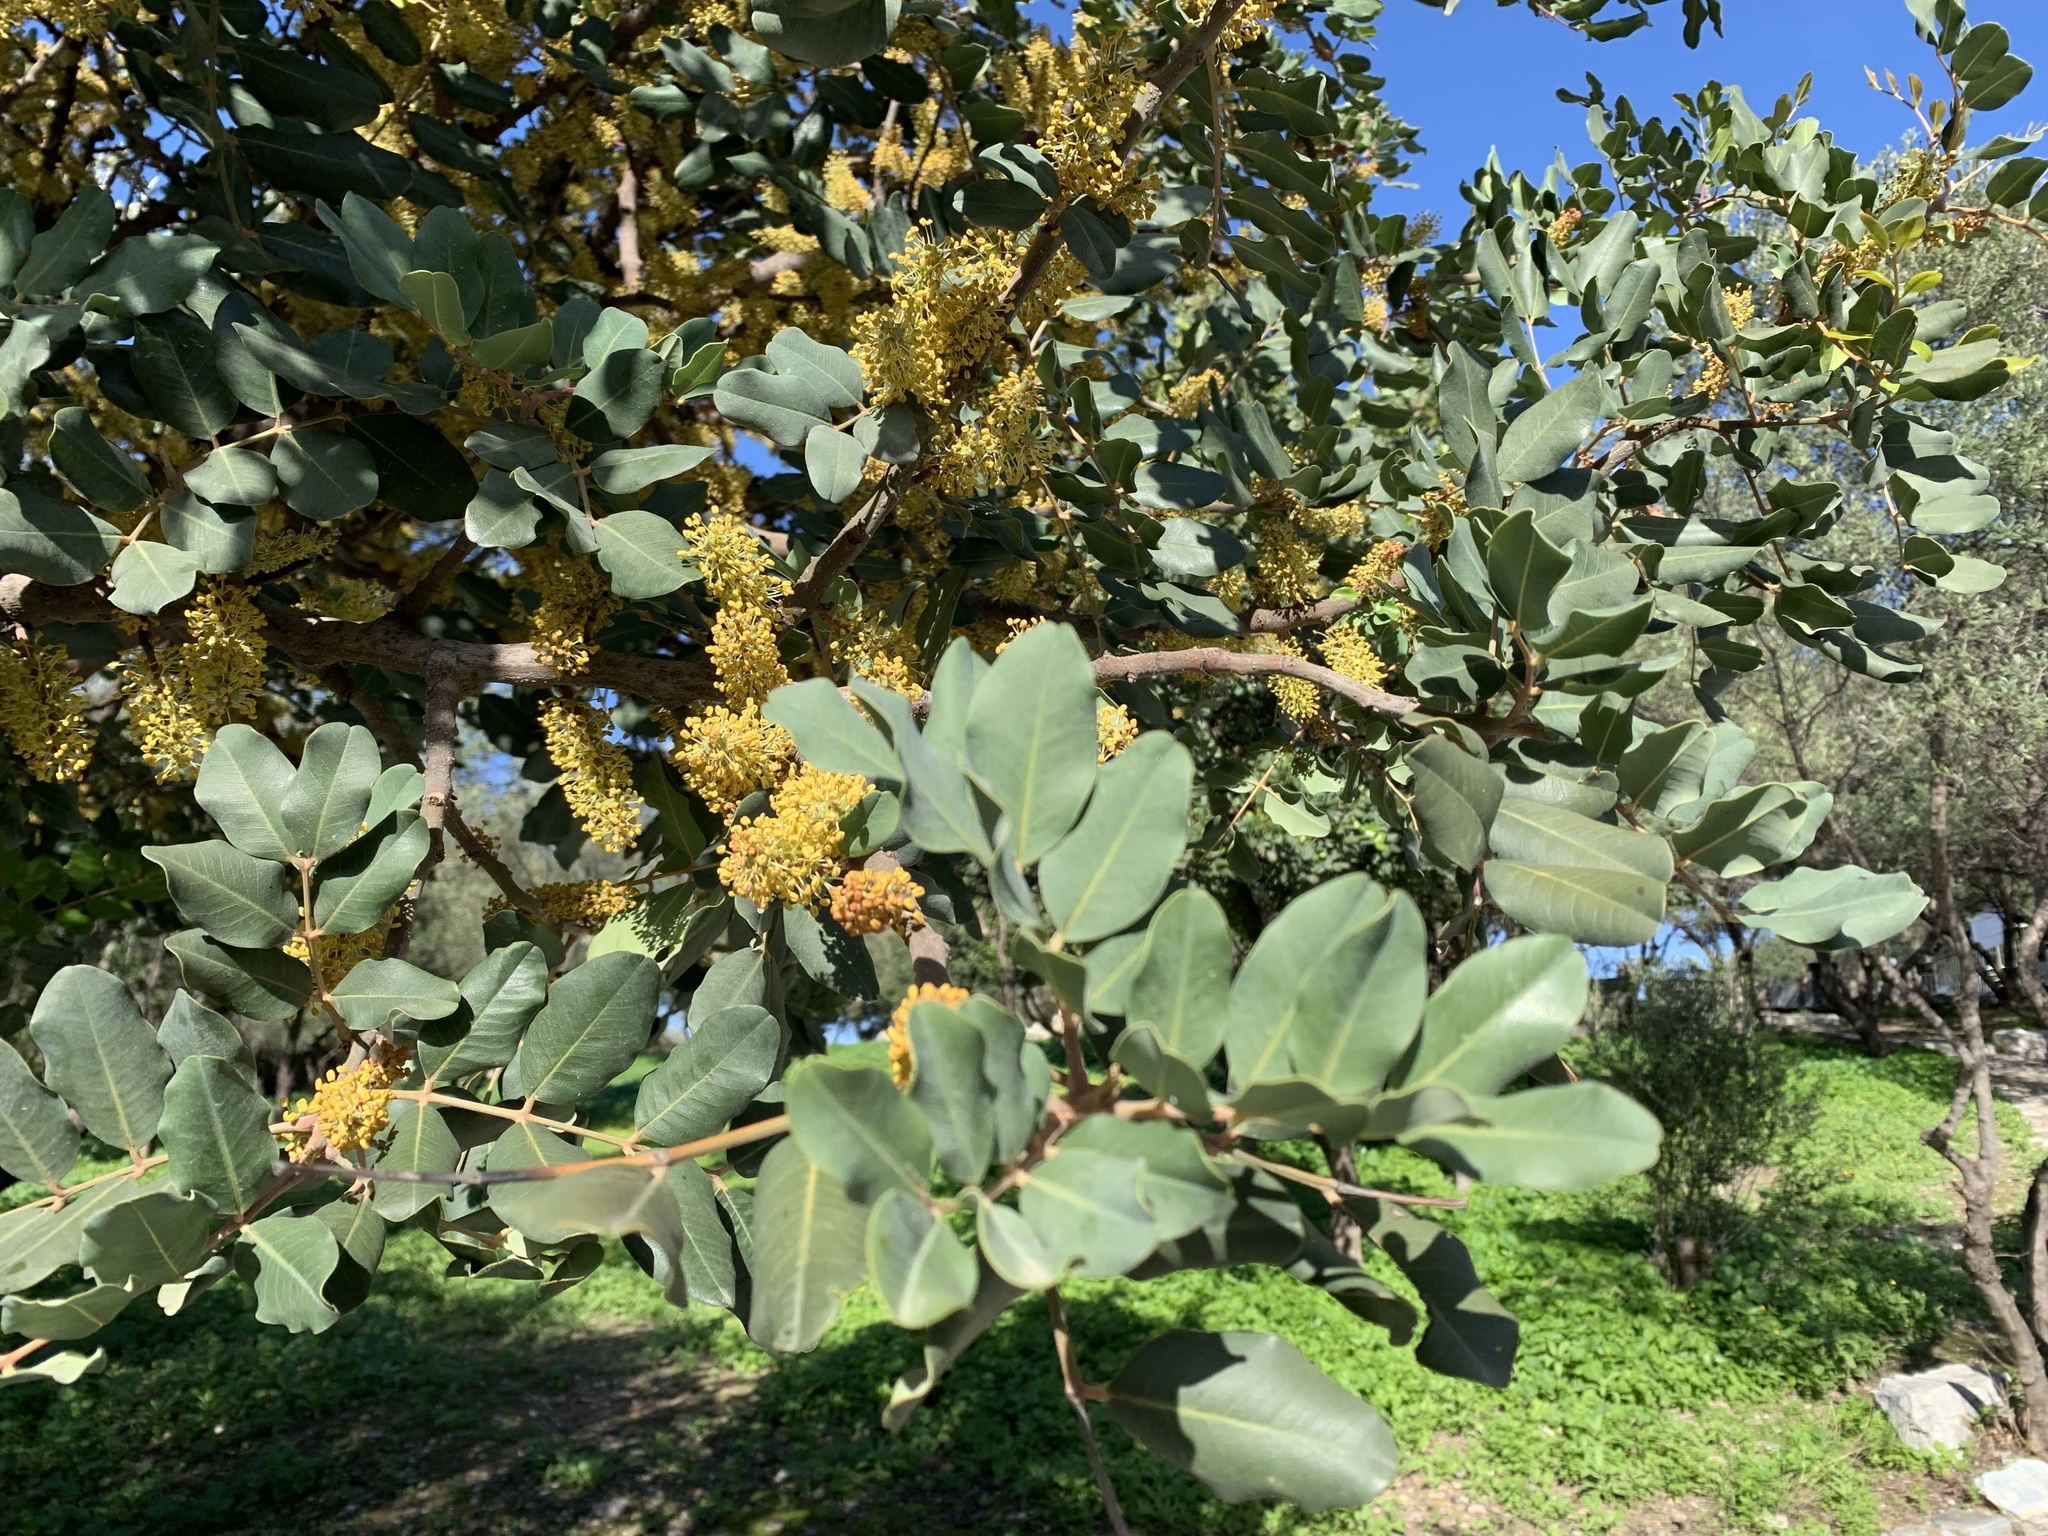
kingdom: Plantae
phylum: Tracheophyta
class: Magnoliopsida
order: Fabales
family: Fabaceae
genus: Ceratonia
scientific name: Ceratonia siliqua
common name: Carob
